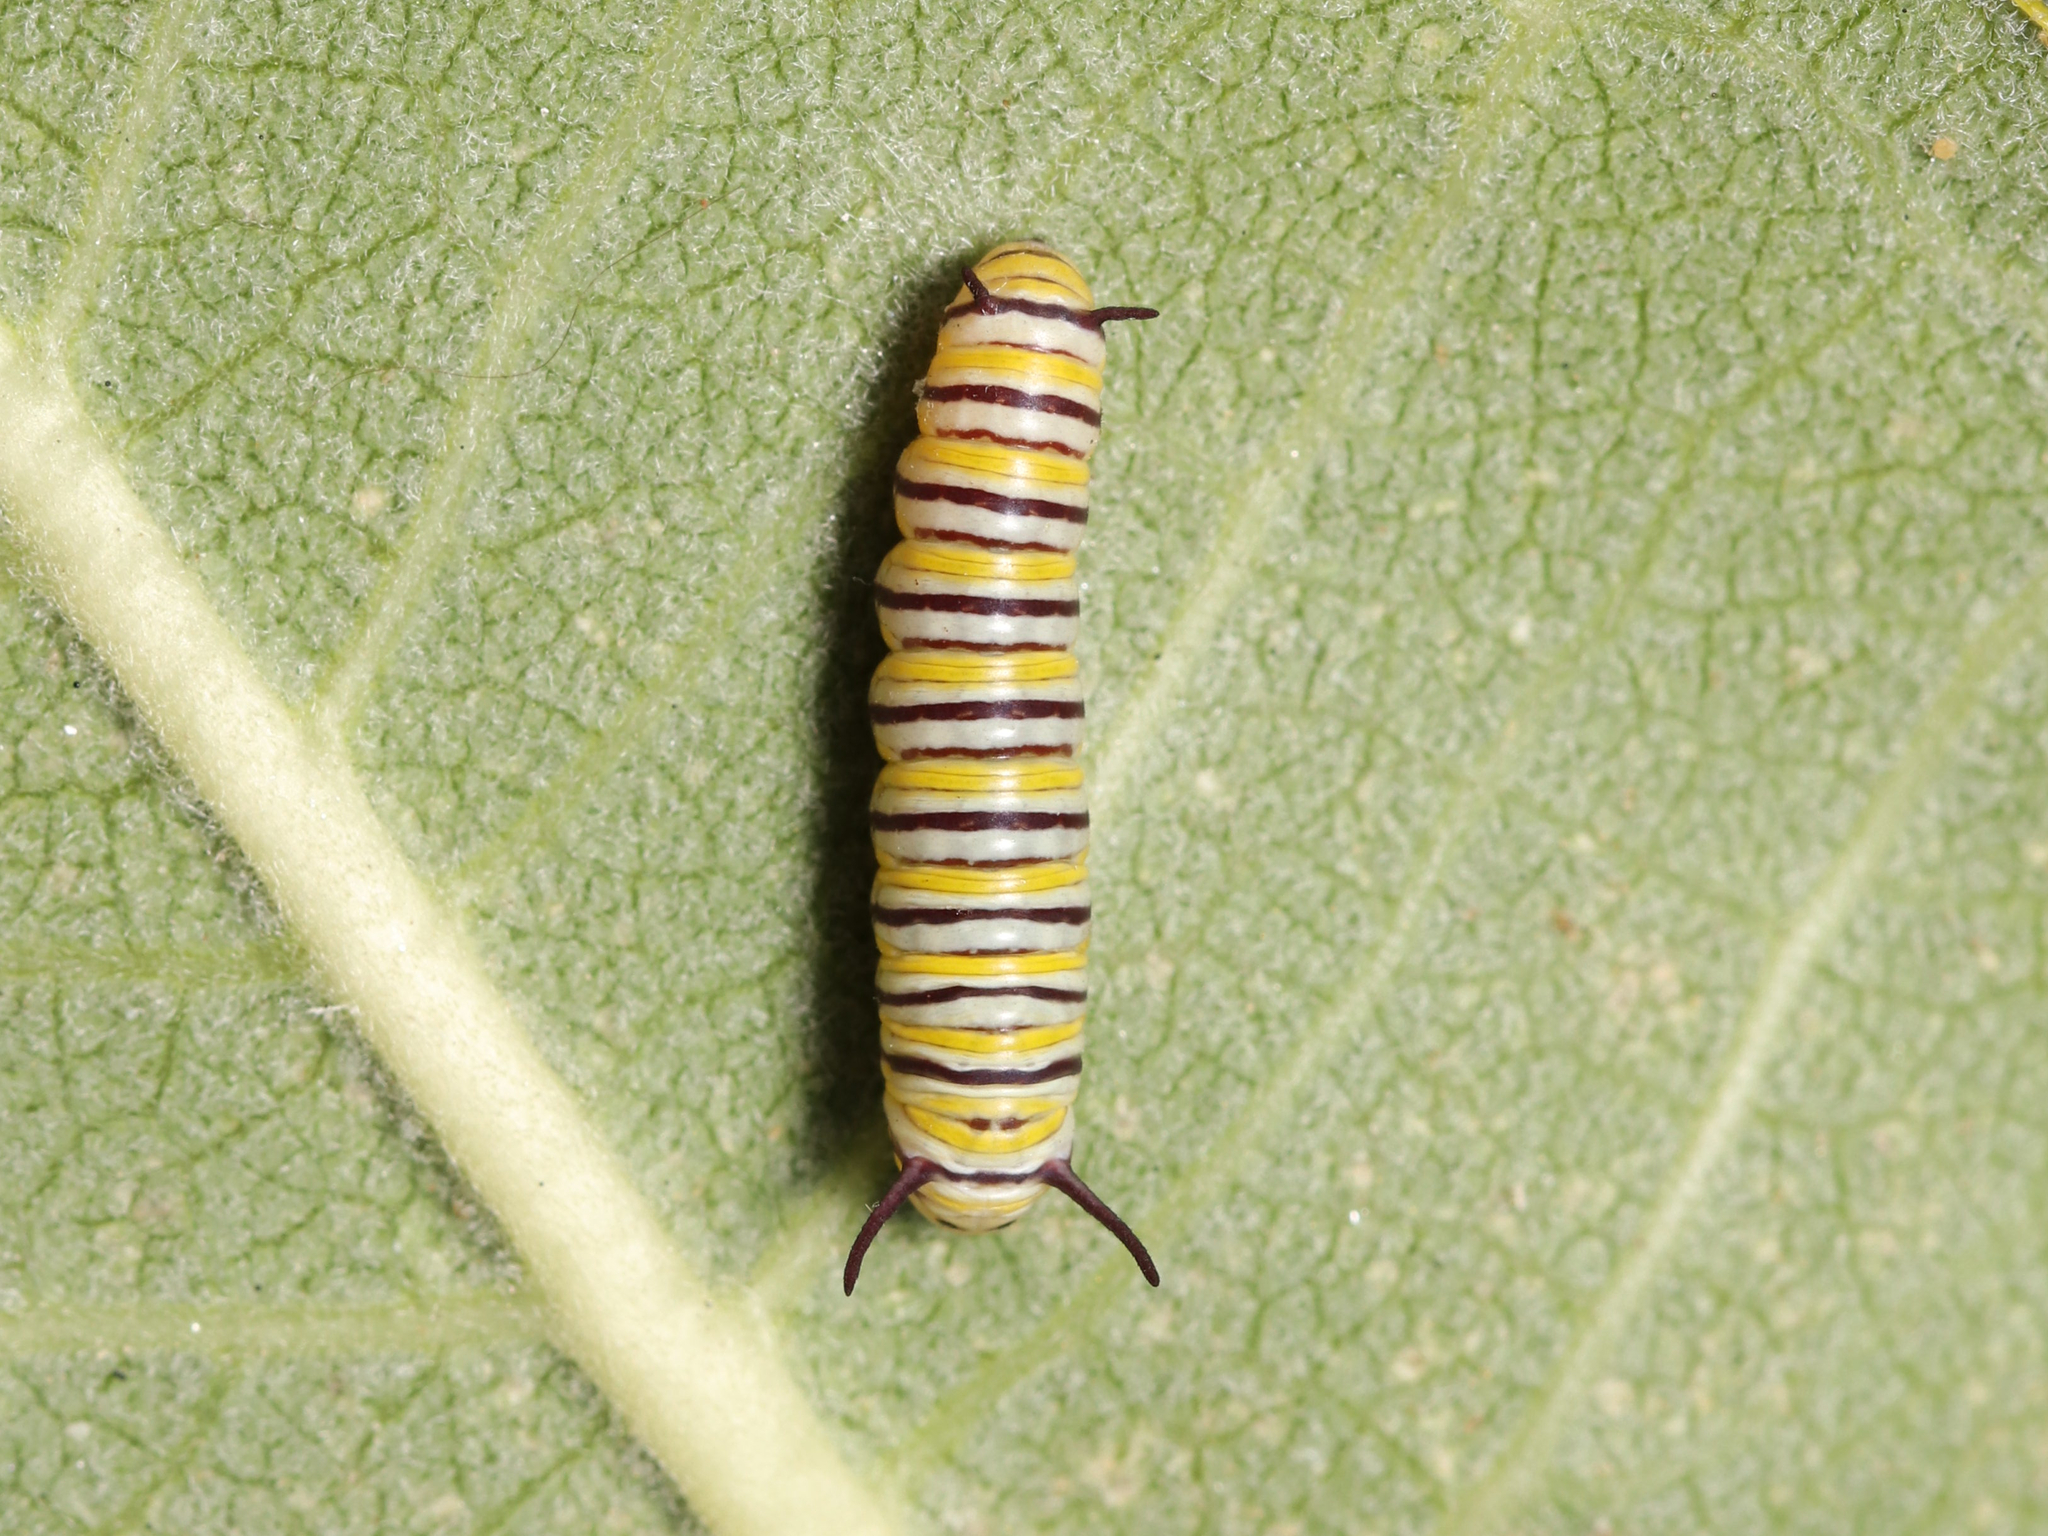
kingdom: Animalia
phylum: Arthropoda
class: Insecta
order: Lepidoptera
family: Nymphalidae
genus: Danaus
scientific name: Danaus plexippus
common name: Monarch
